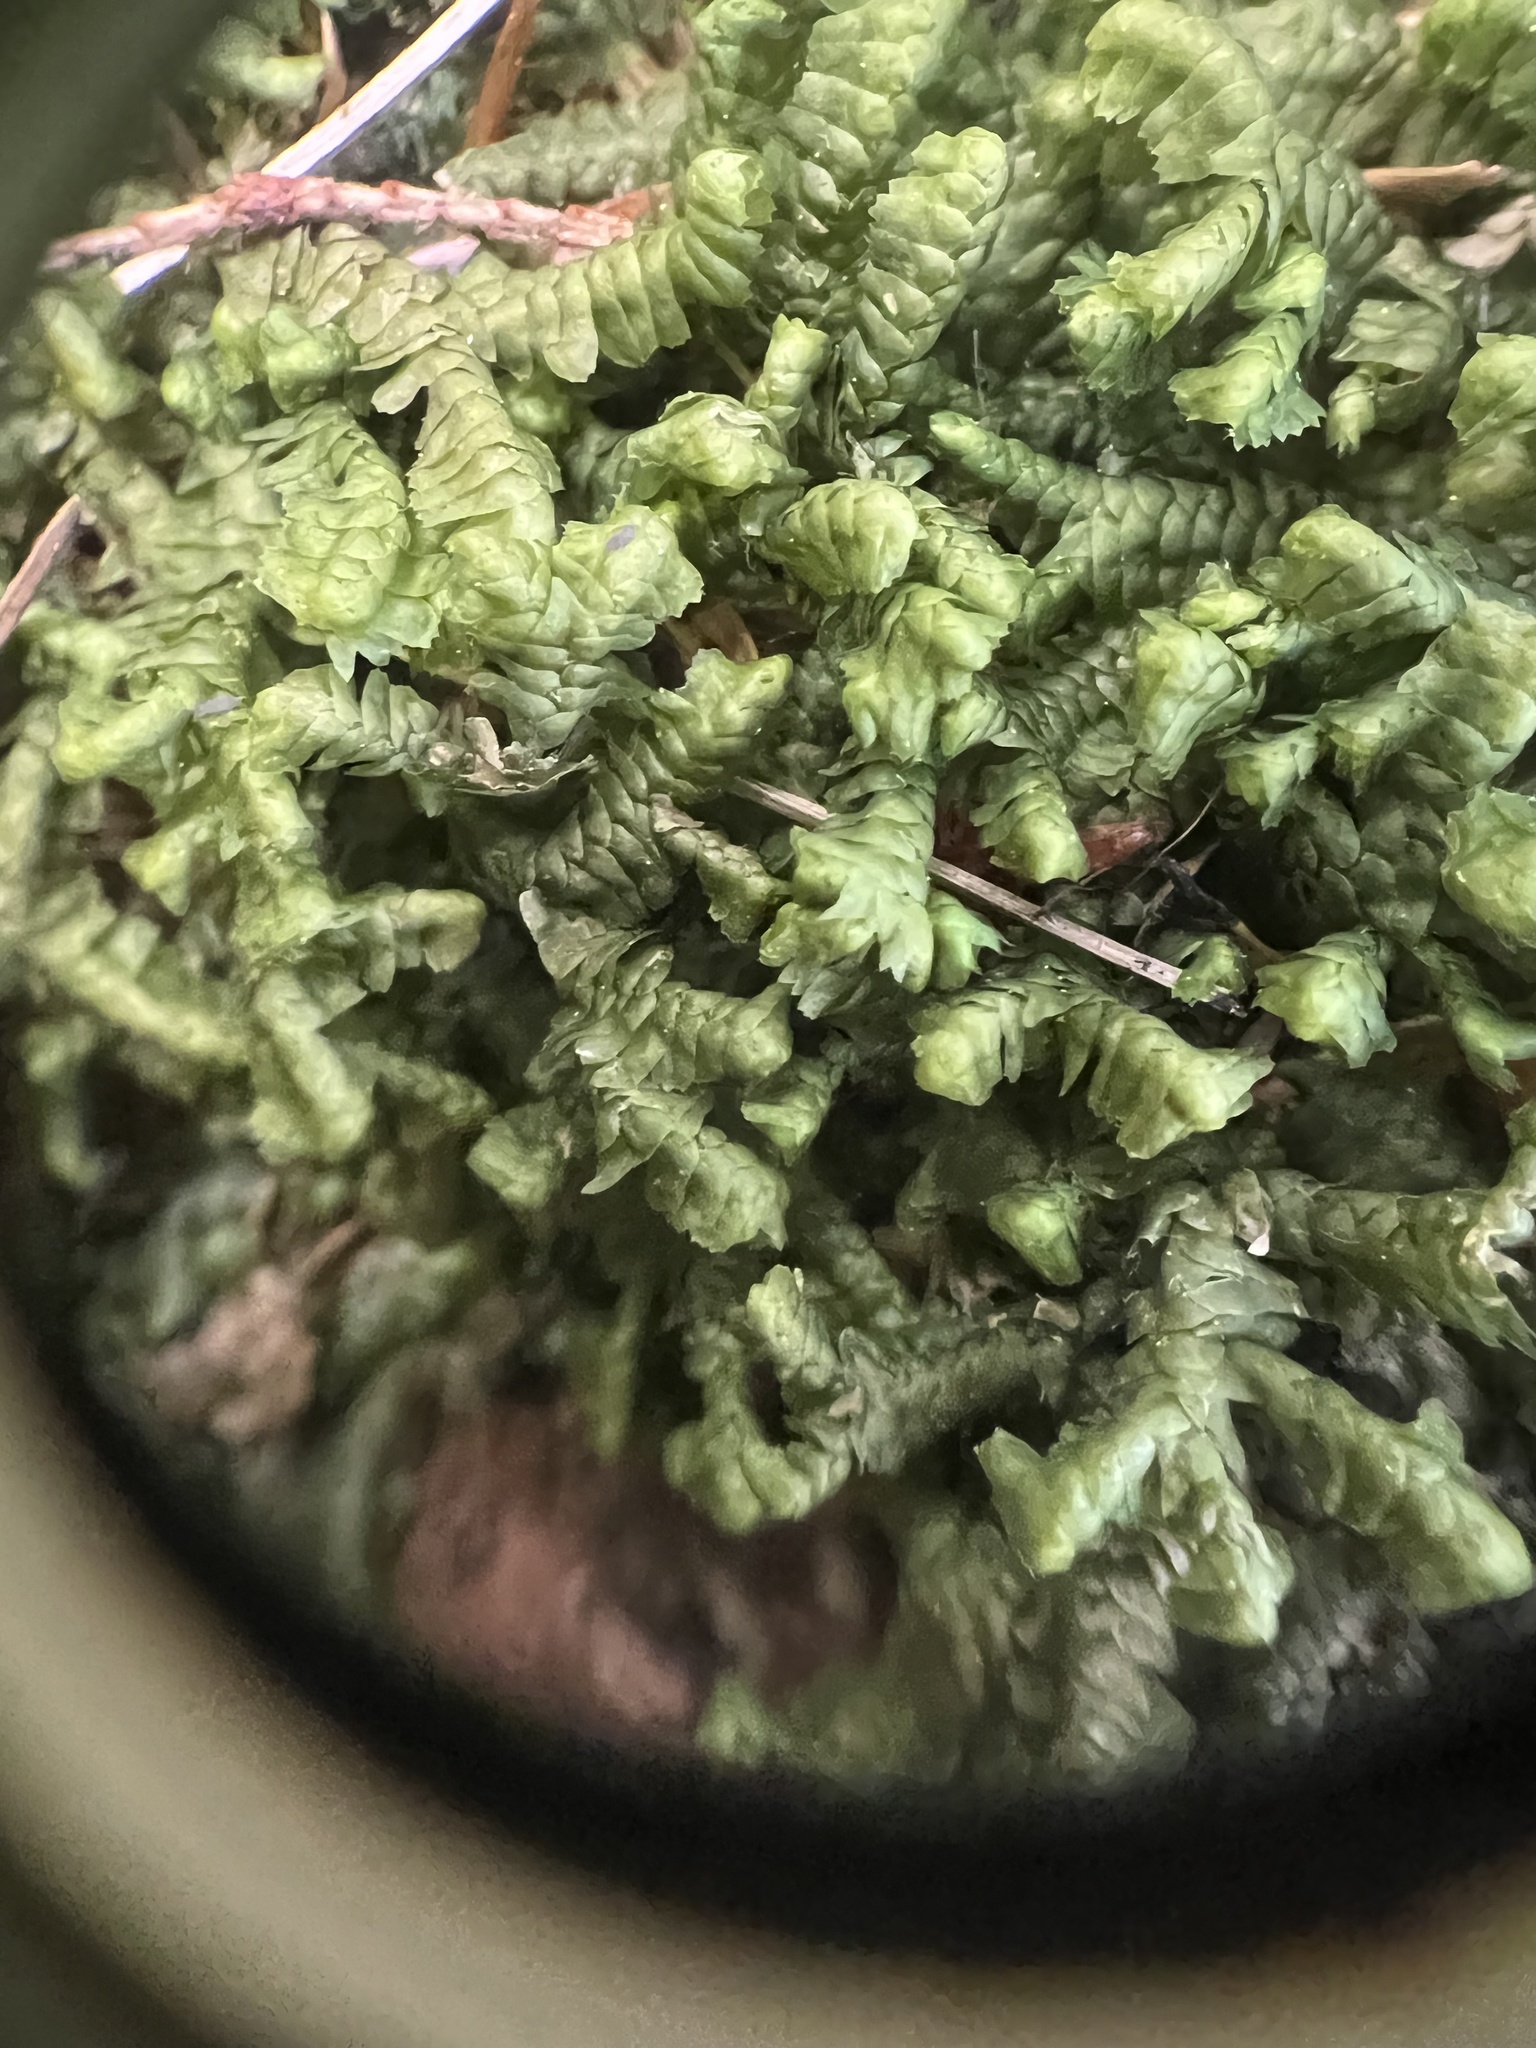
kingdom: Plantae
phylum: Marchantiophyta
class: Jungermanniopsida
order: Jungermanniales
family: Lepidoziaceae
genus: Bazzania
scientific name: Bazzania trilobata
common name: Three-lobed whipwort
